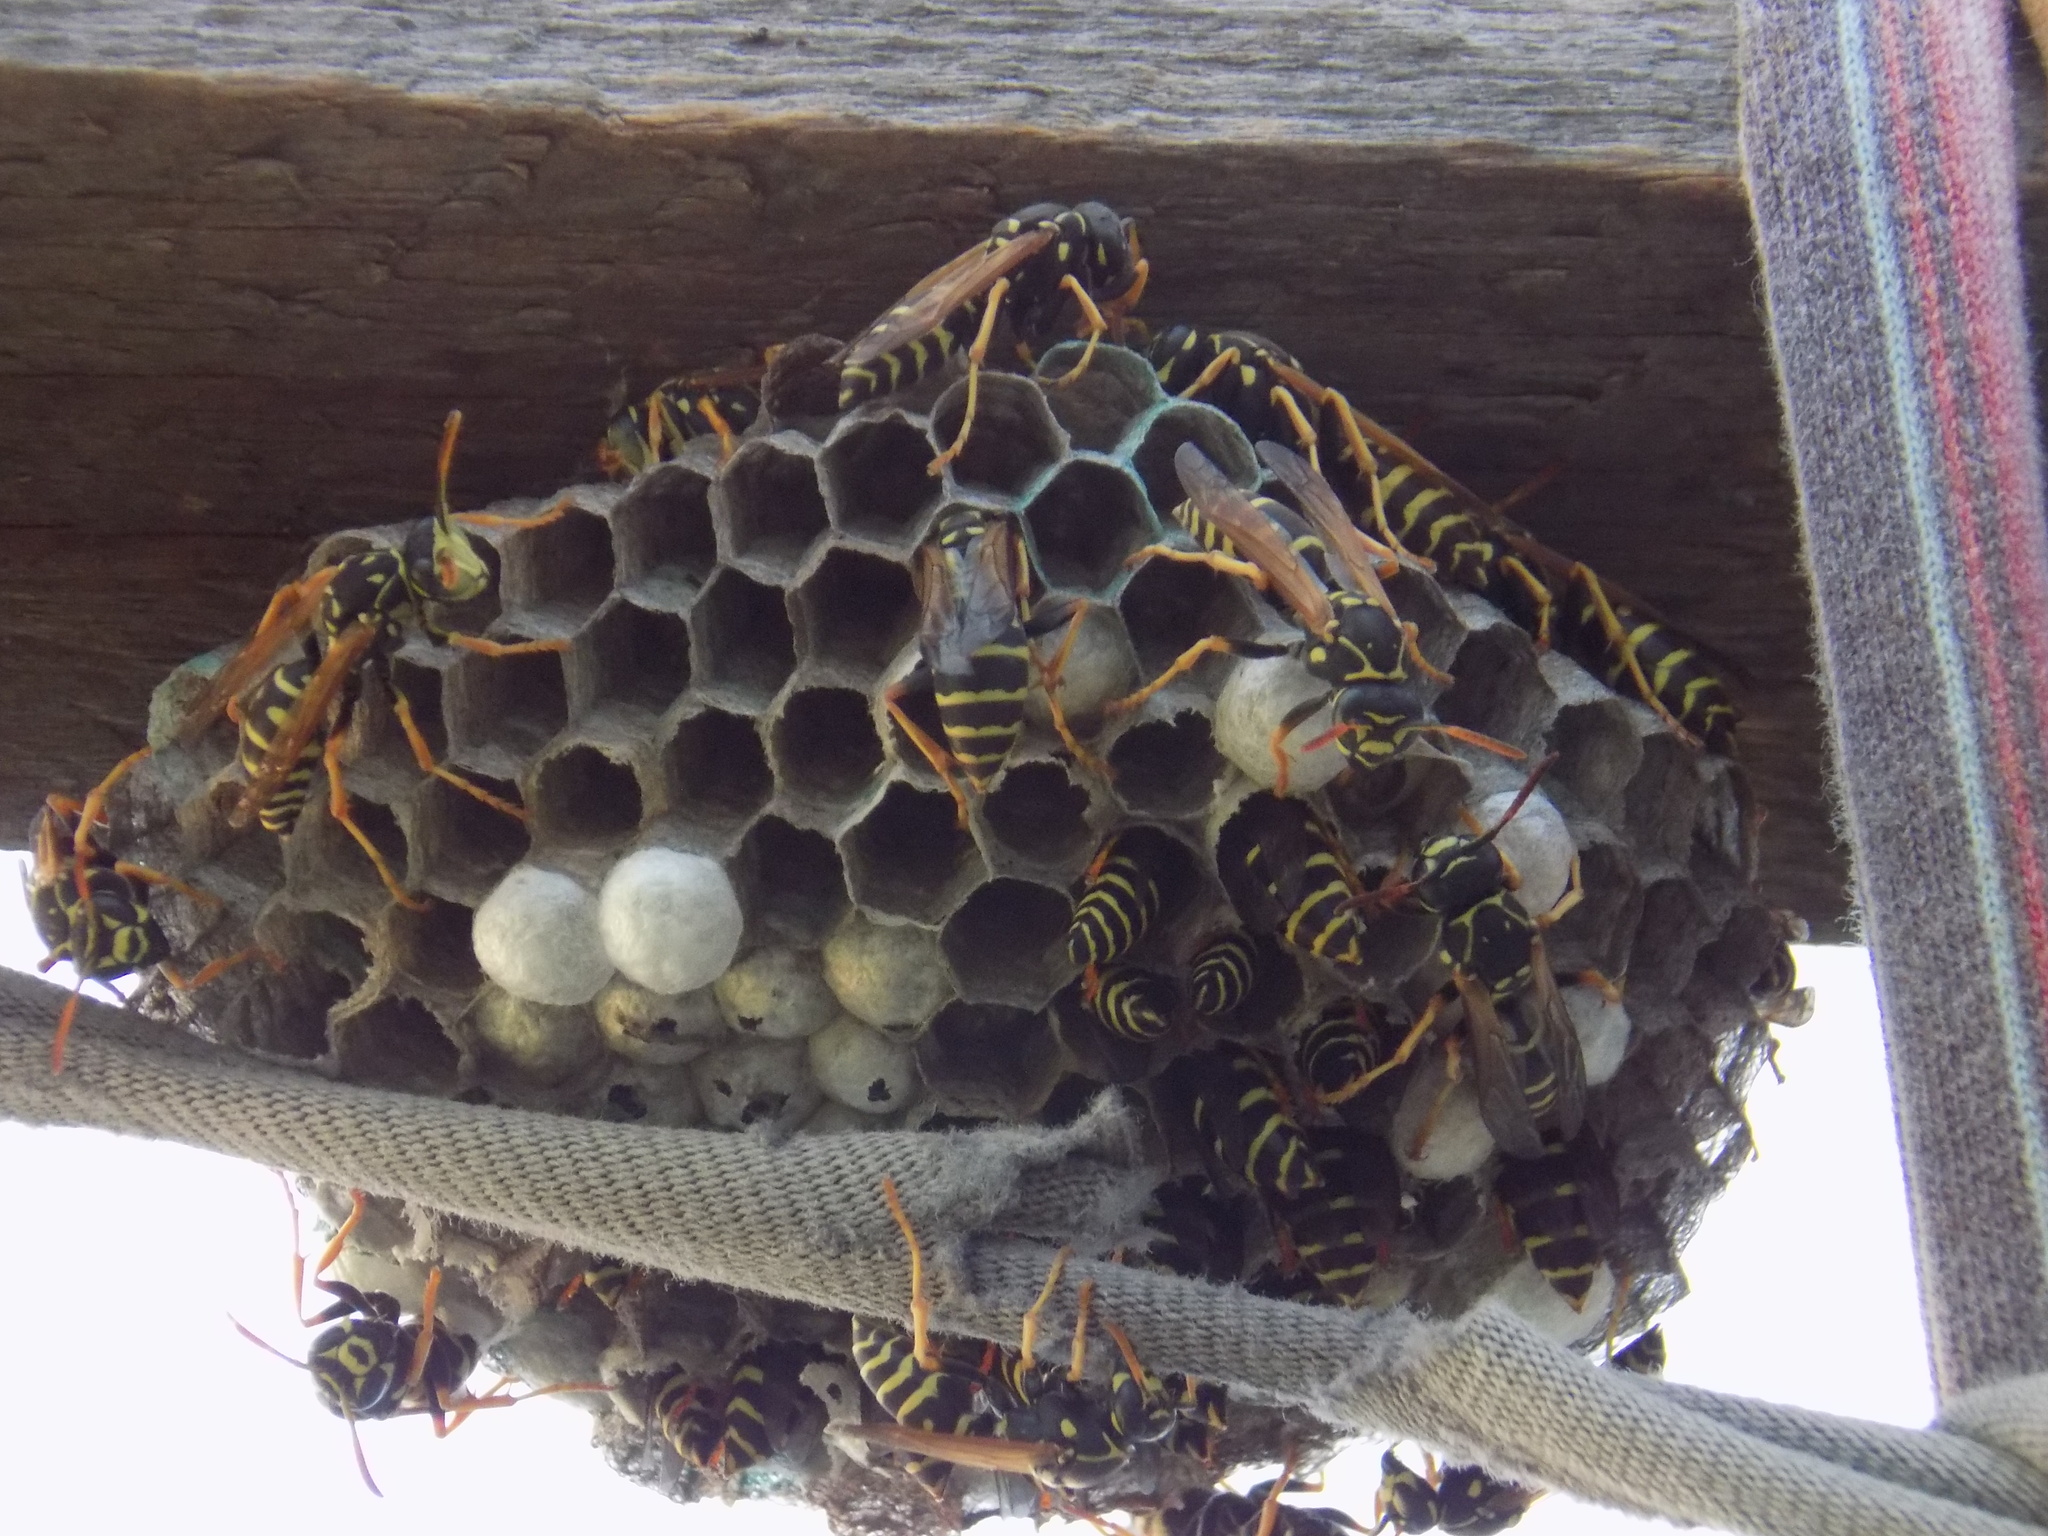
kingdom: Animalia
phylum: Arthropoda
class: Insecta
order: Hymenoptera
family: Eumenidae
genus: Polistes
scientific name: Polistes dominula
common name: Paper wasp
